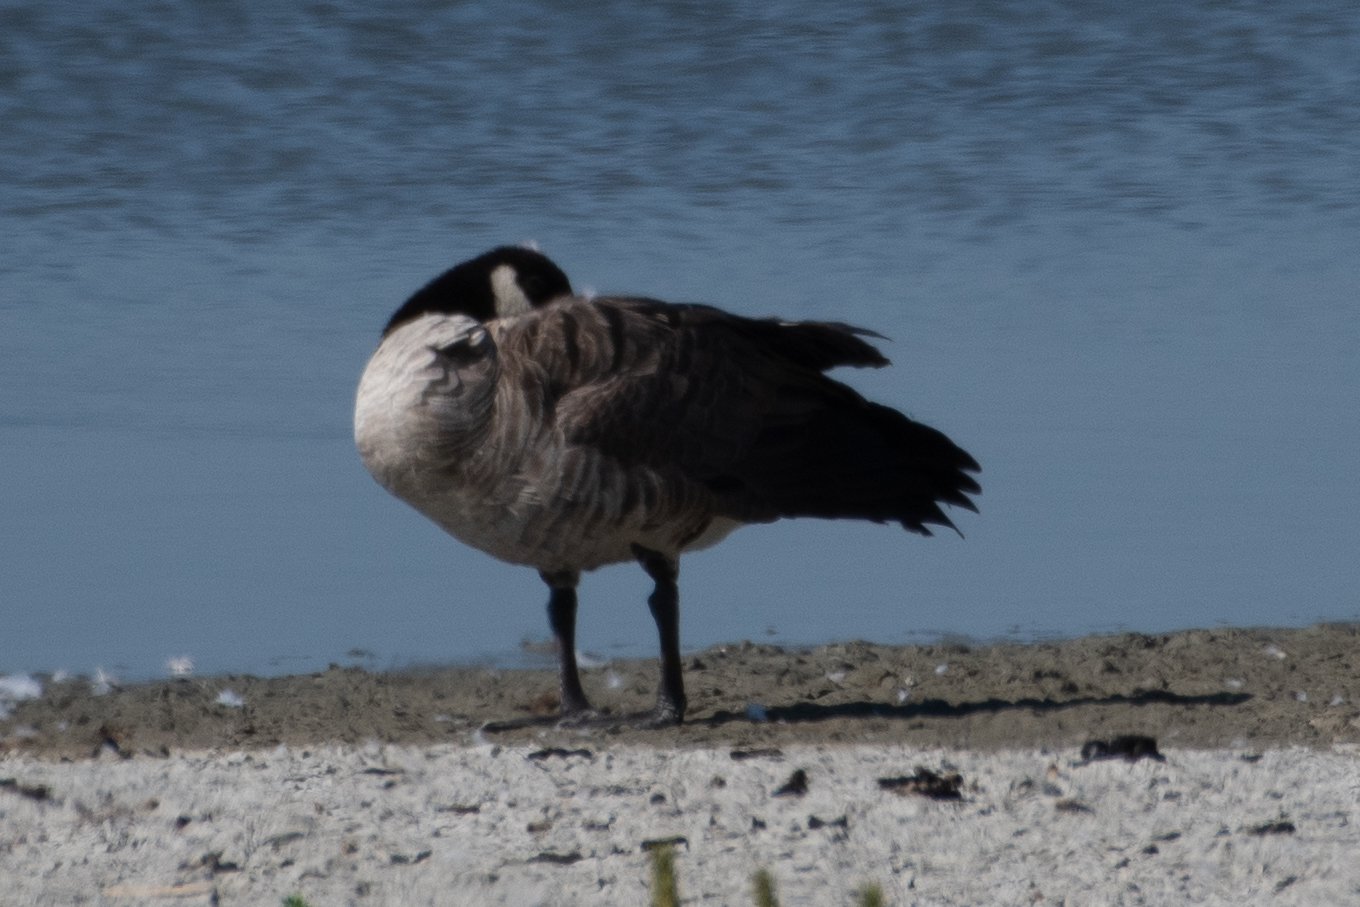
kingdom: Animalia
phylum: Chordata
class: Aves
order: Anseriformes
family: Anatidae
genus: Branta
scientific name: Branta canadensis
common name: Canada goose
